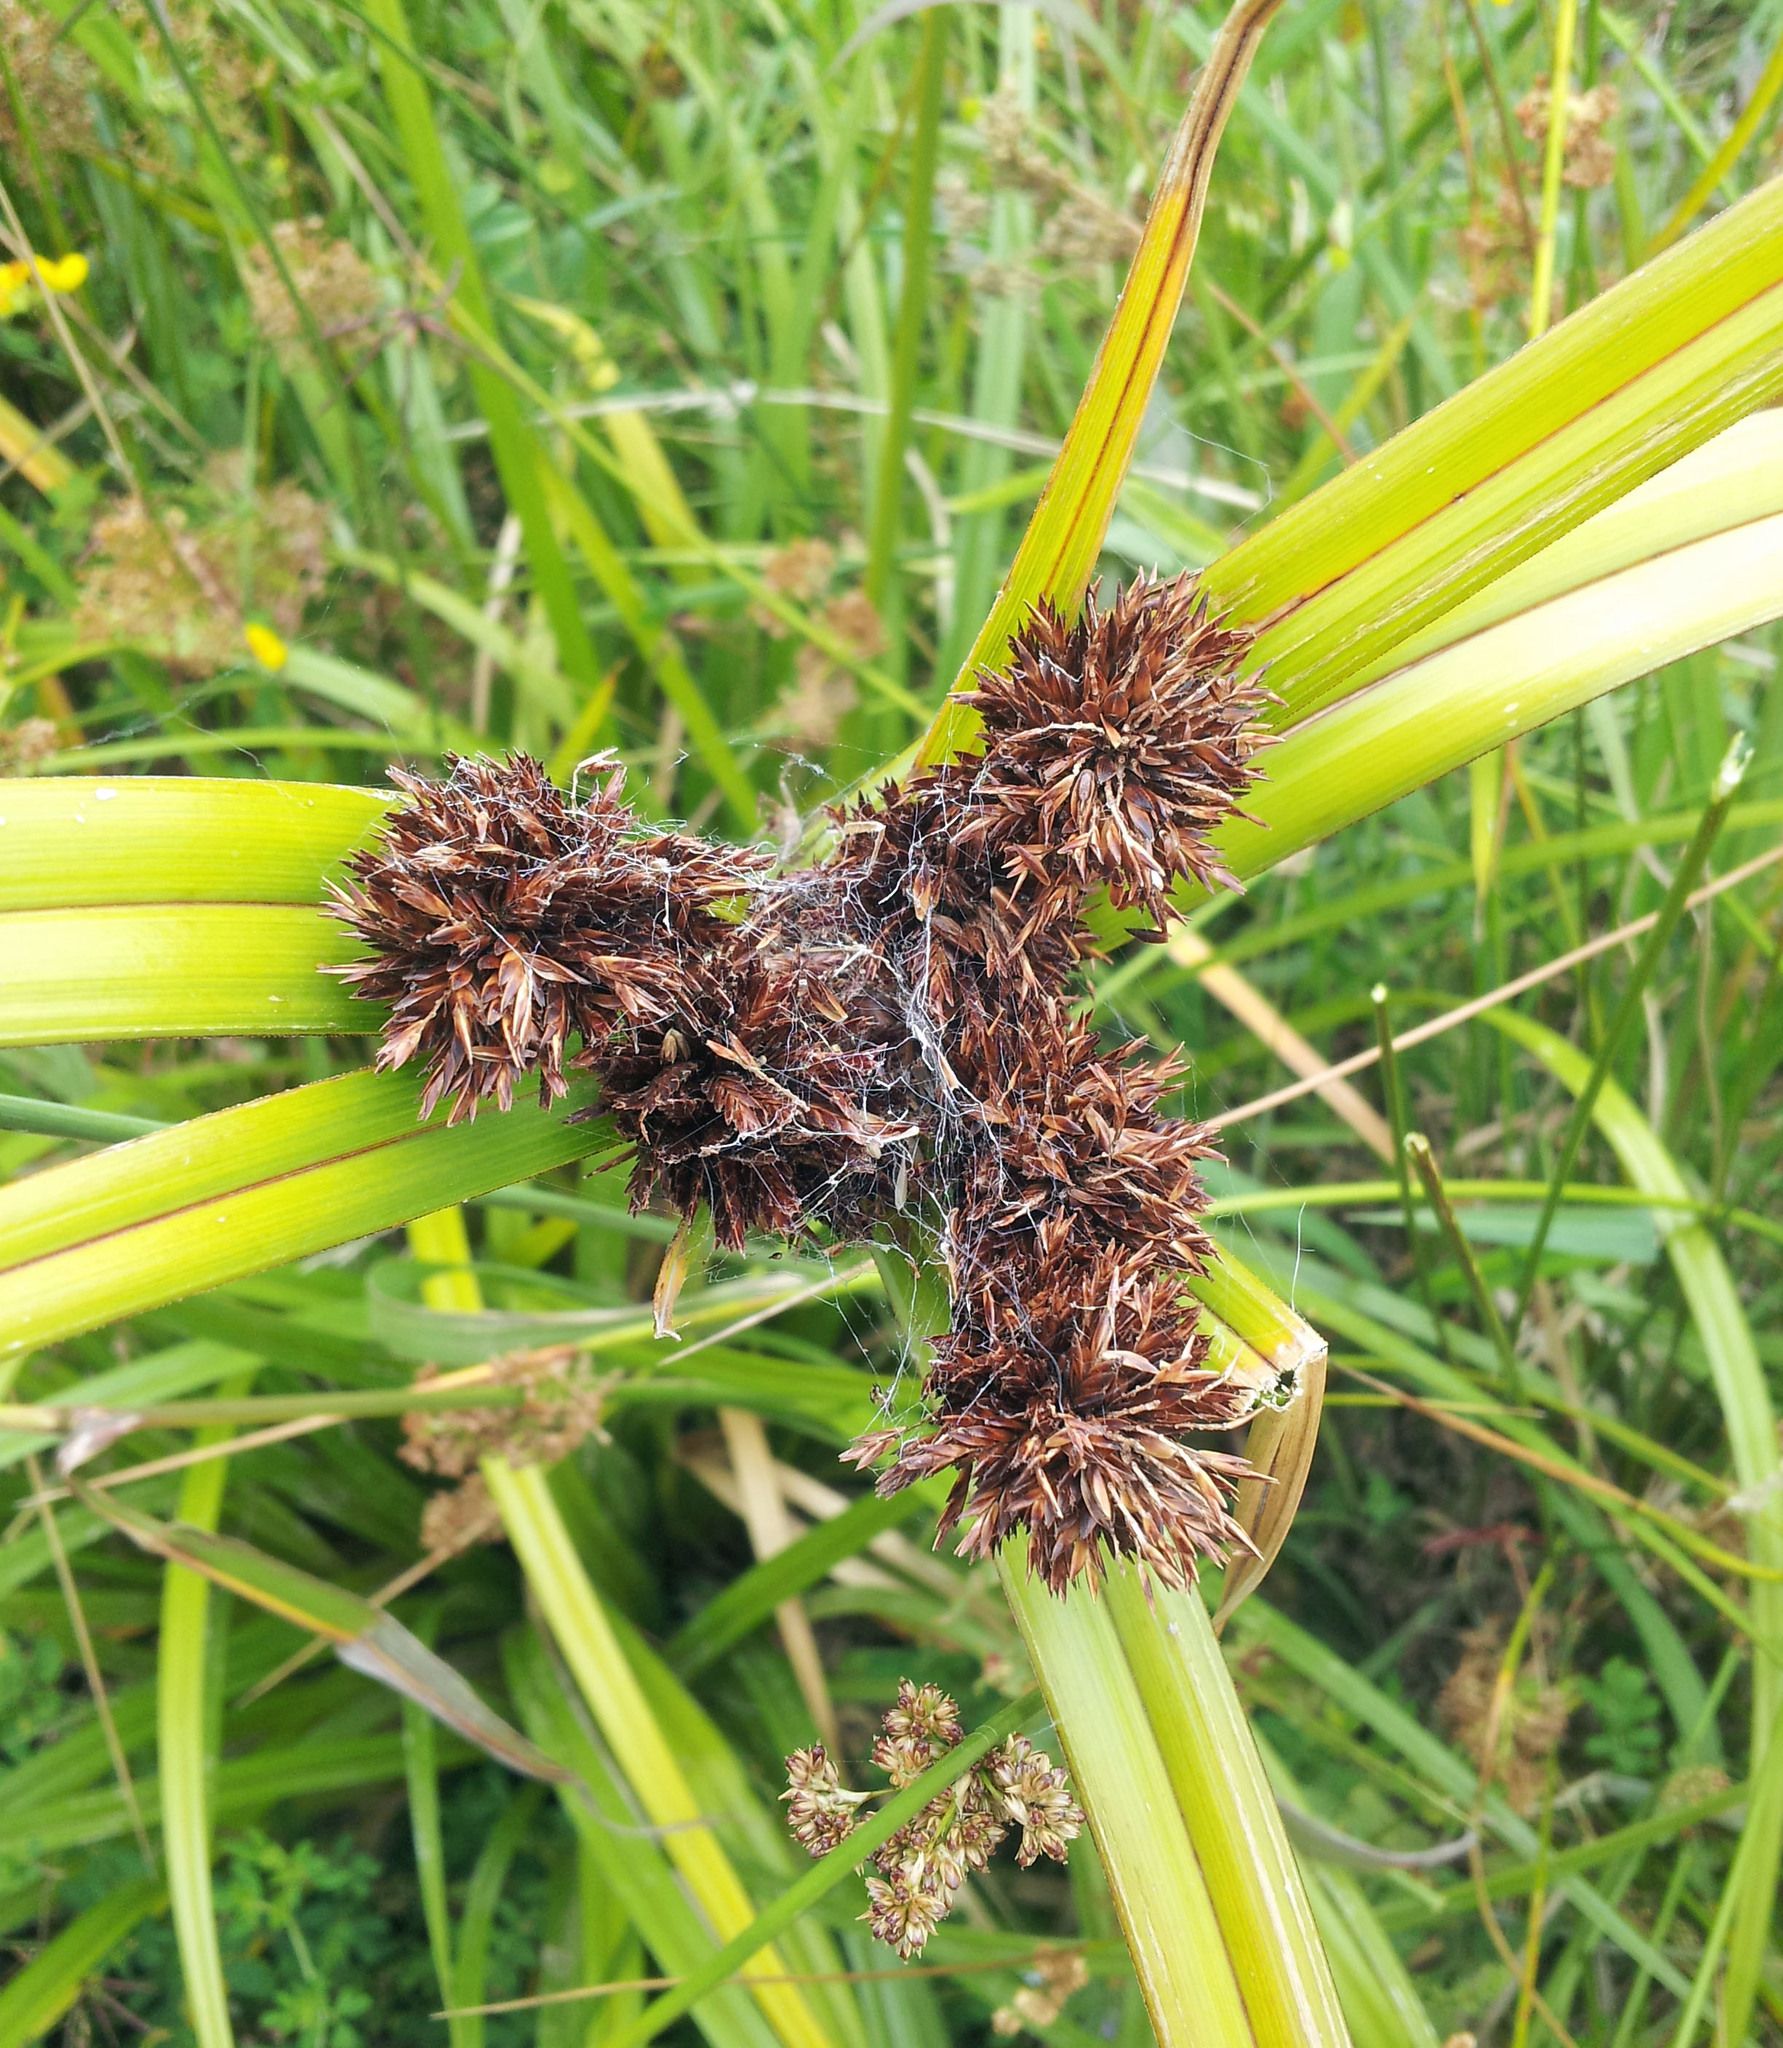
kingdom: Plantae
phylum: Tracheophyta
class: Liliopsida
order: Poales
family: Cyperaceae
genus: Cyperus
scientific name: Cyperus ustulatus
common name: Giant umbrella-sedge
